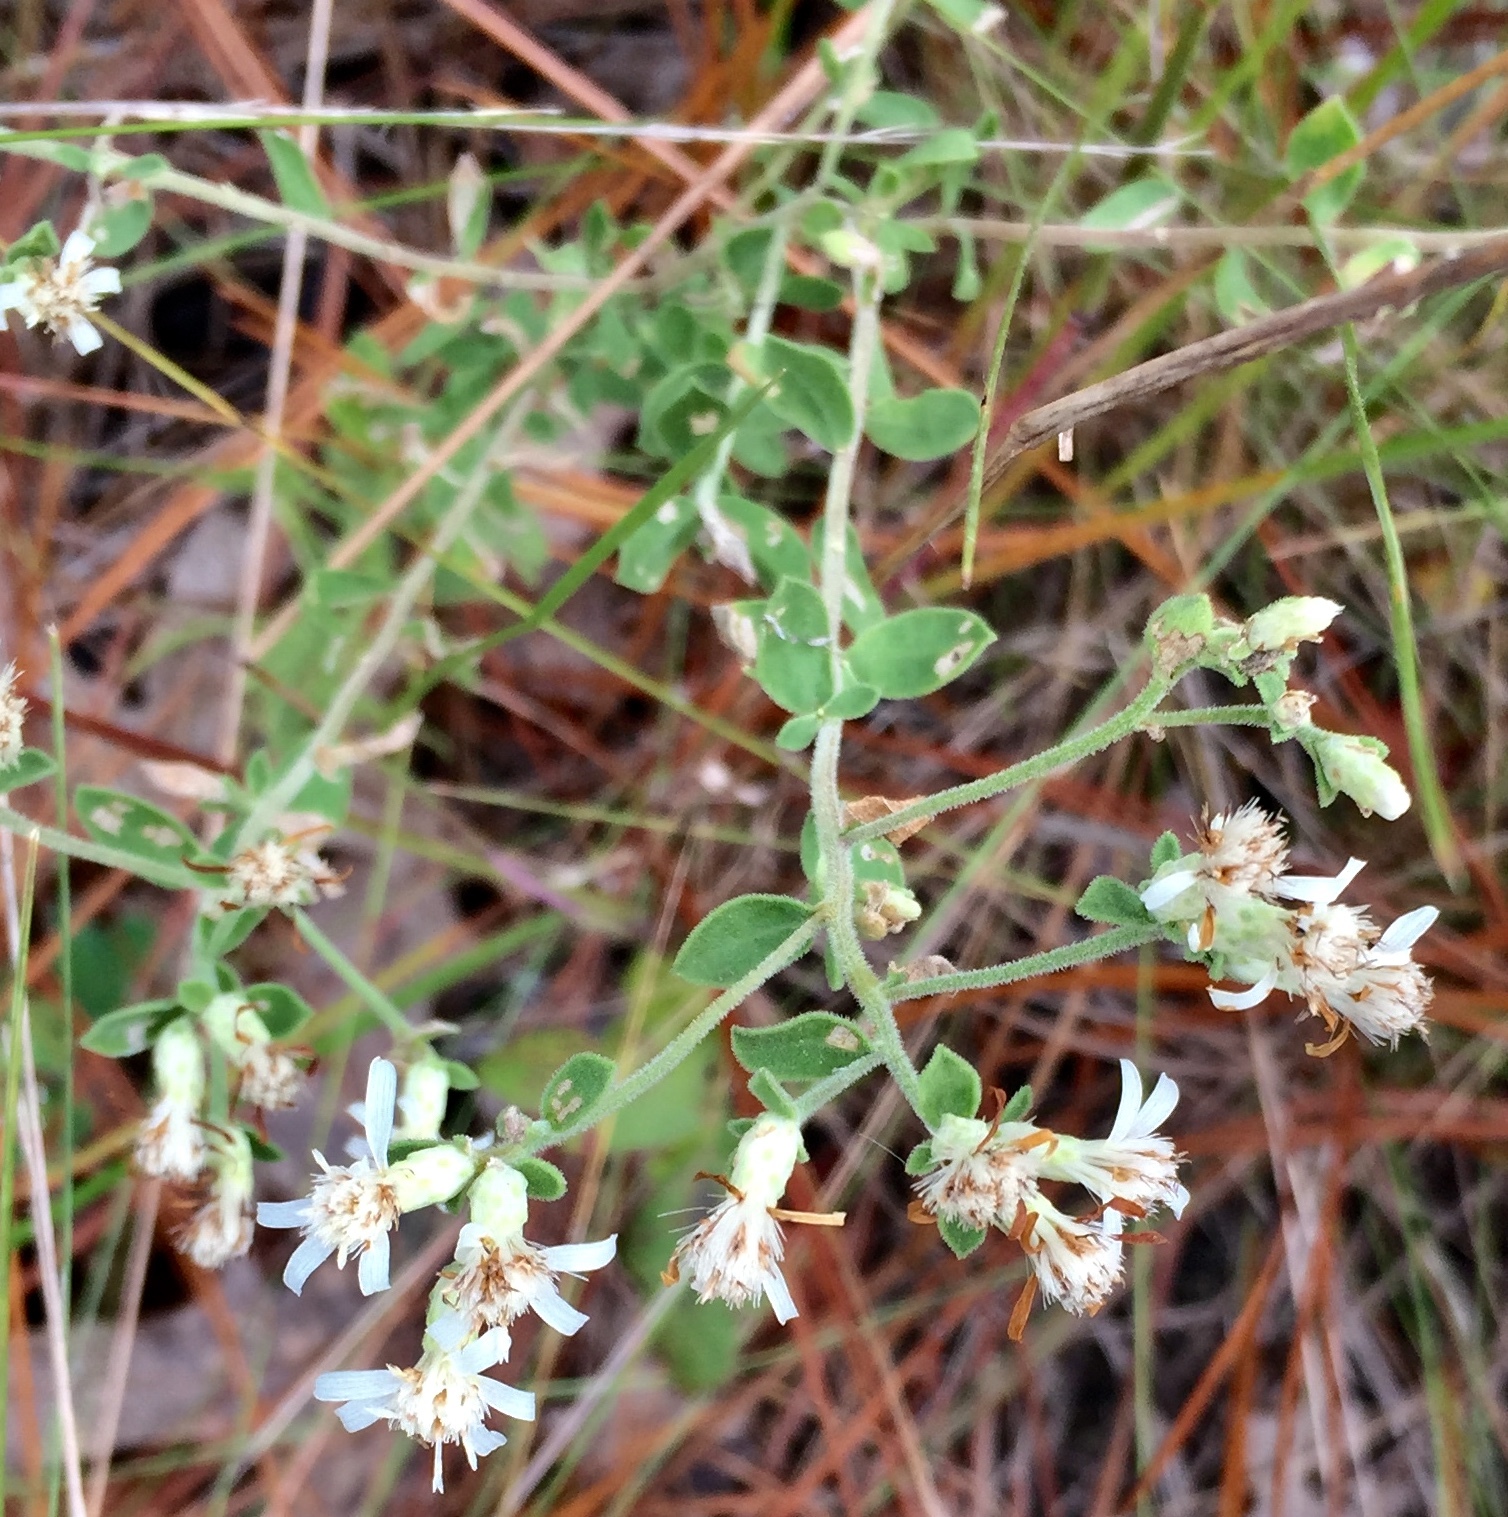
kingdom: Plantae
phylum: Tracheophyta
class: Magnoliopsida
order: Asterales
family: Asteraceae
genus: Sericocarpus
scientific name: Sericocarpus tortifolius
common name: Dixie aster
